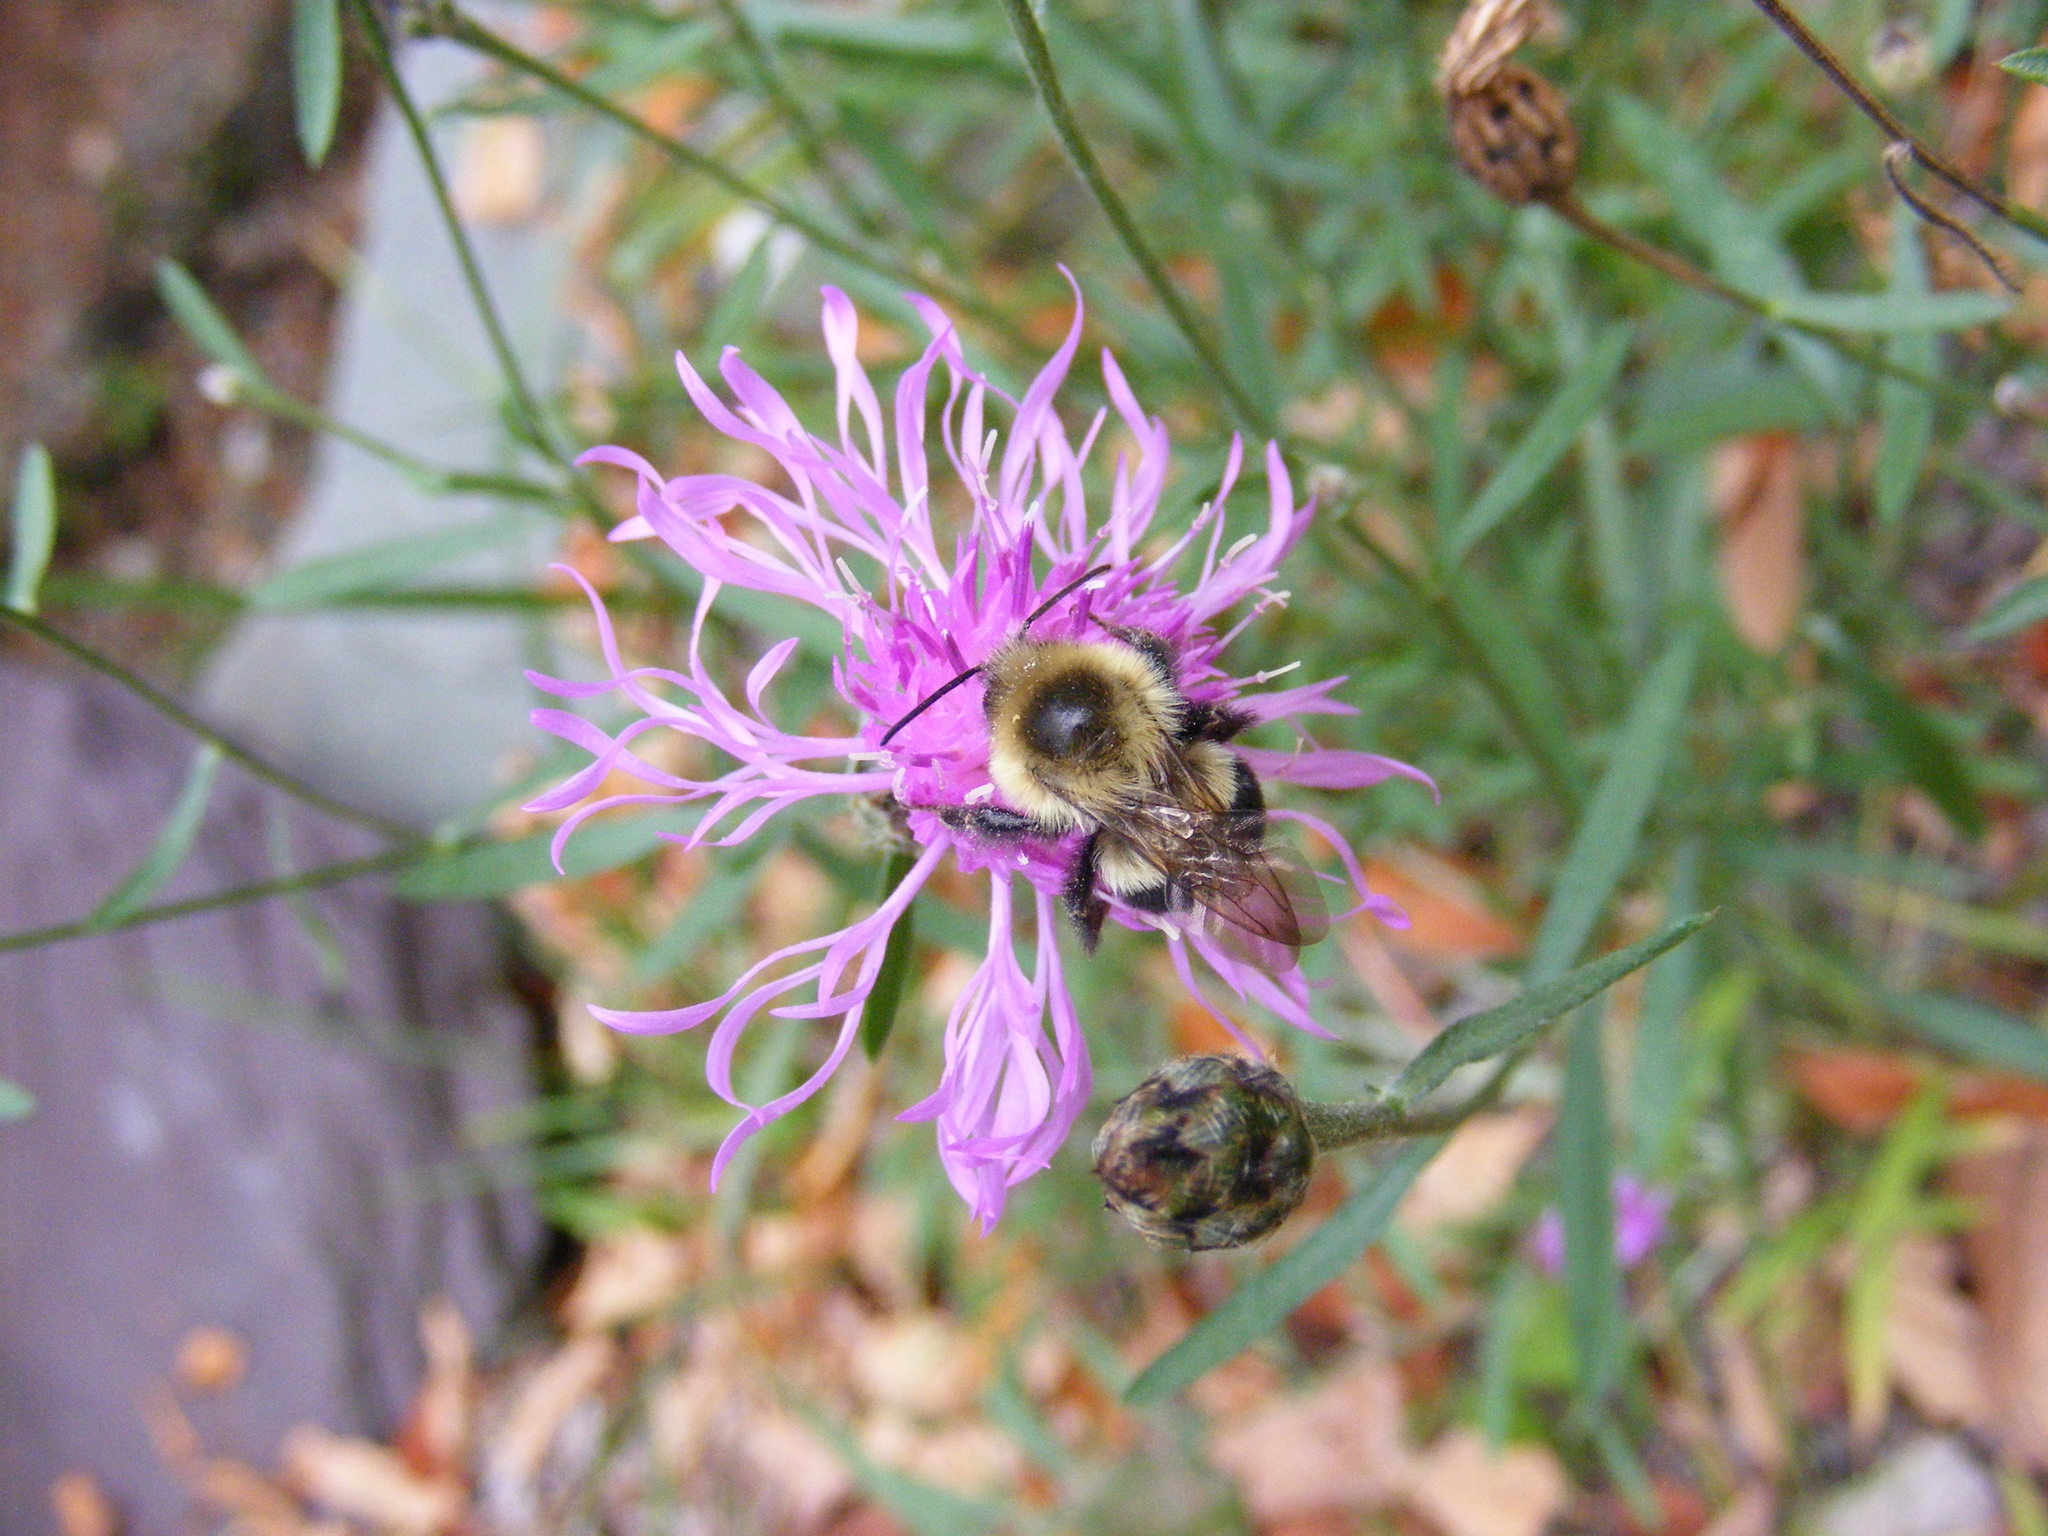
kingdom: Animalia
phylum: Arthropoda
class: Insecta
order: Hymenoptera
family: Apidae
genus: Bombus
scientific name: Bombus impatiens
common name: Common eastern bumble bee
